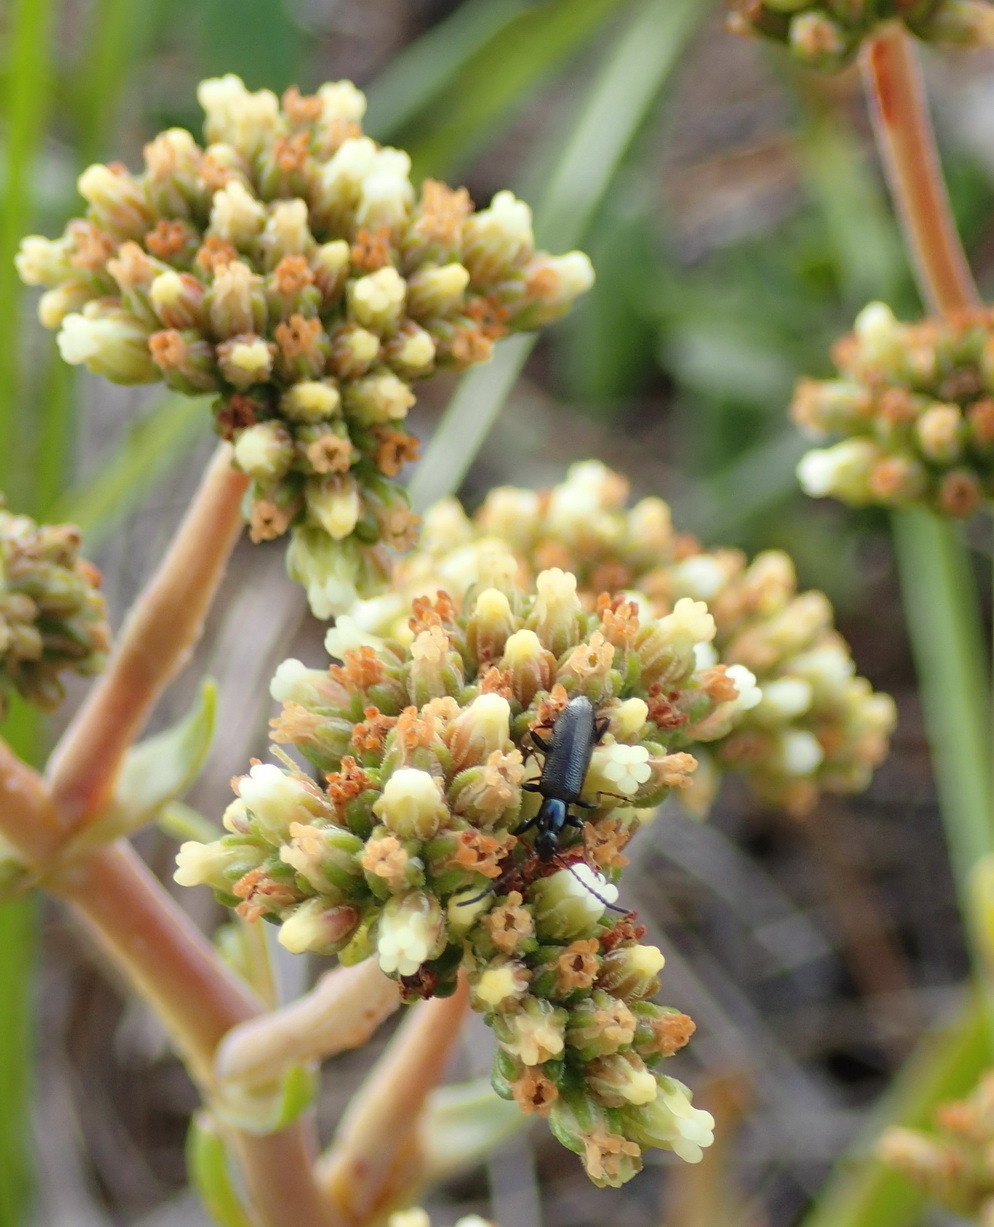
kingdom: Plantae
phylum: Tracheophyta
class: Magnoliopsida
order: Saxifragales
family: Crassulaceae
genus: Crassula
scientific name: Crassula nudicaulis
